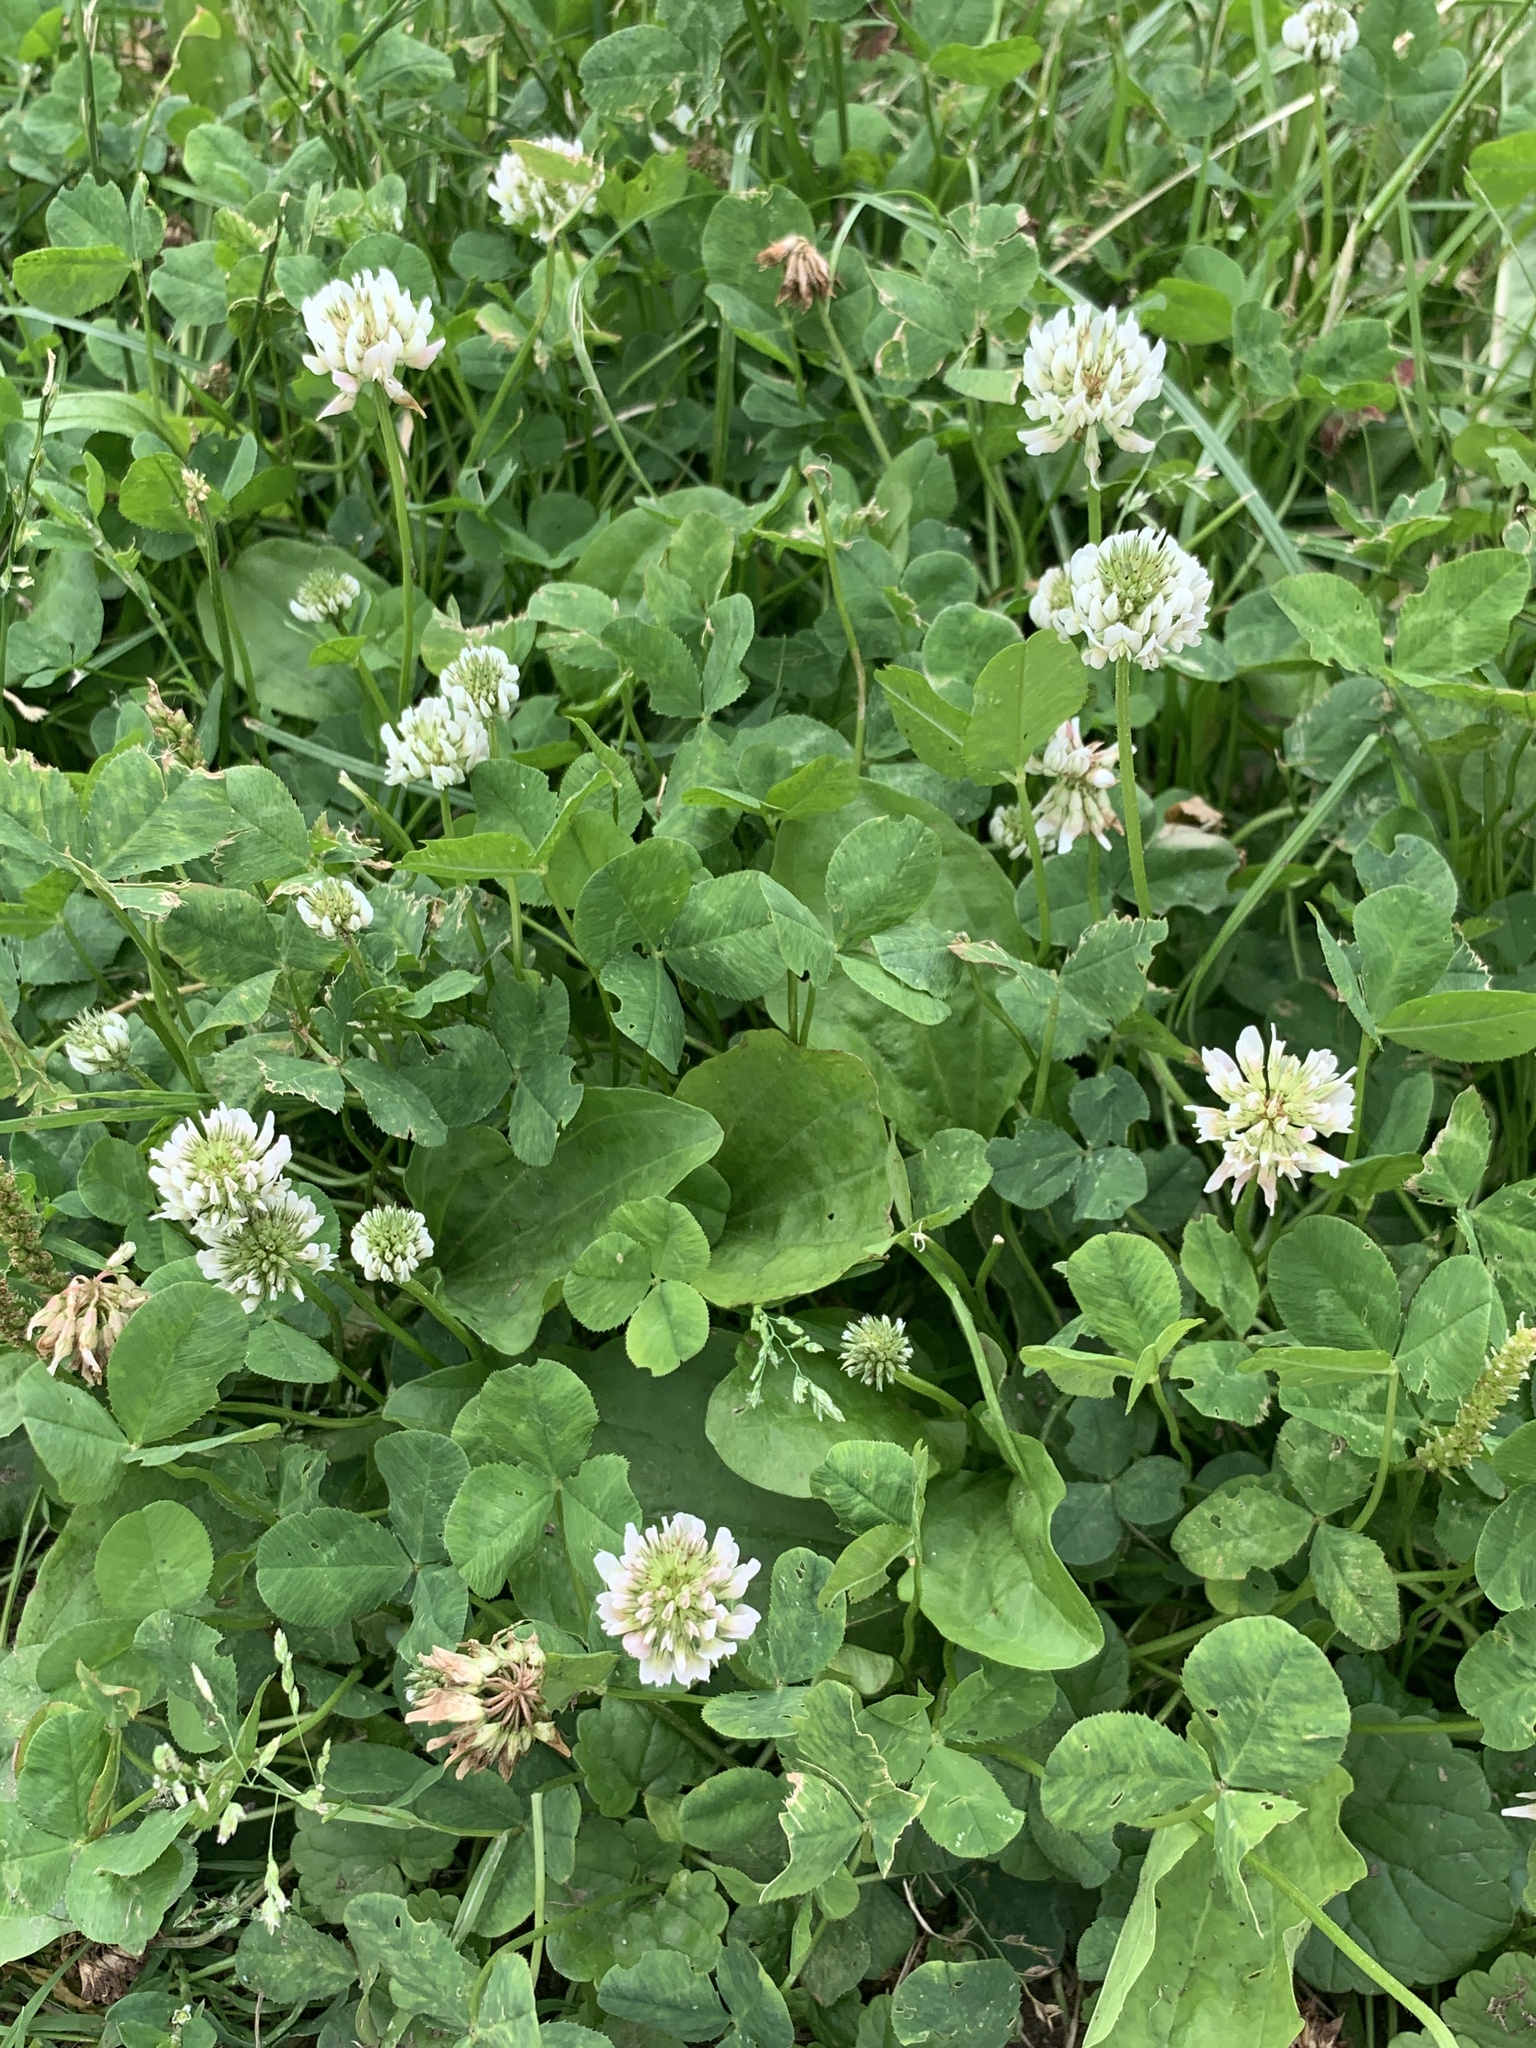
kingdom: Plantae
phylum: Tracheophyta
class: Magnoliopsida
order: Fabales
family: Fabaceae
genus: Trifolium
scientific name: Trifolium repens
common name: White clover
